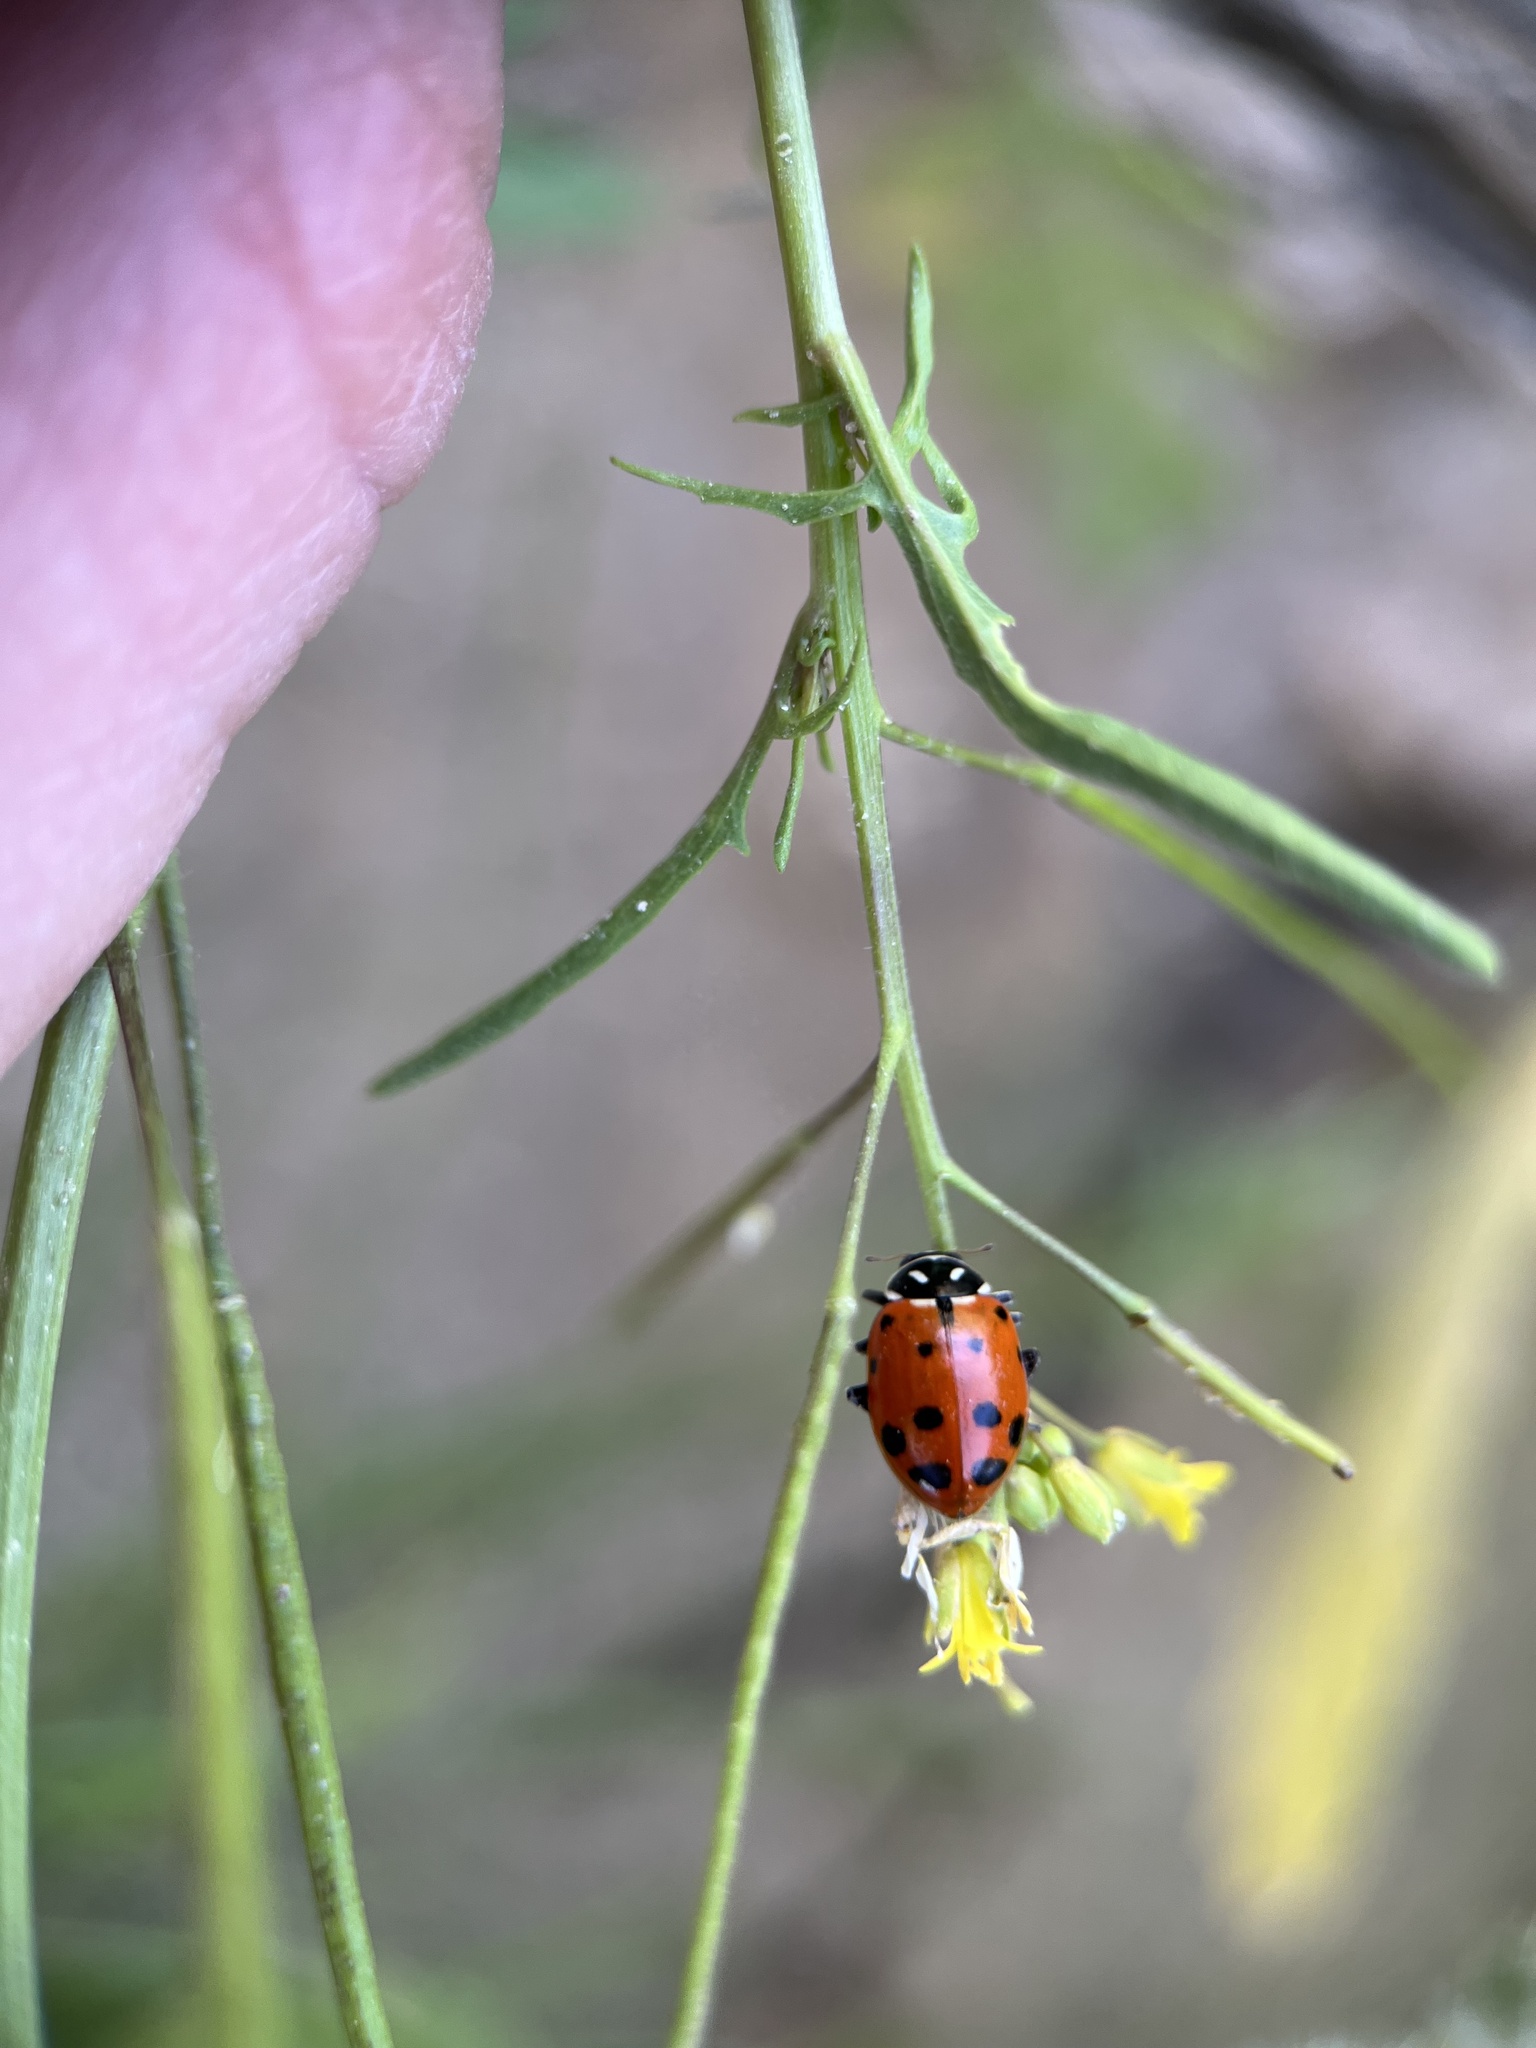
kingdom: Animalia
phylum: Arthropoda
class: Insecta
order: Coleoptera
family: Coccinellidae
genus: Hippodamia
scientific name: Hippodamia convergens
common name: Convergent lady beetle
